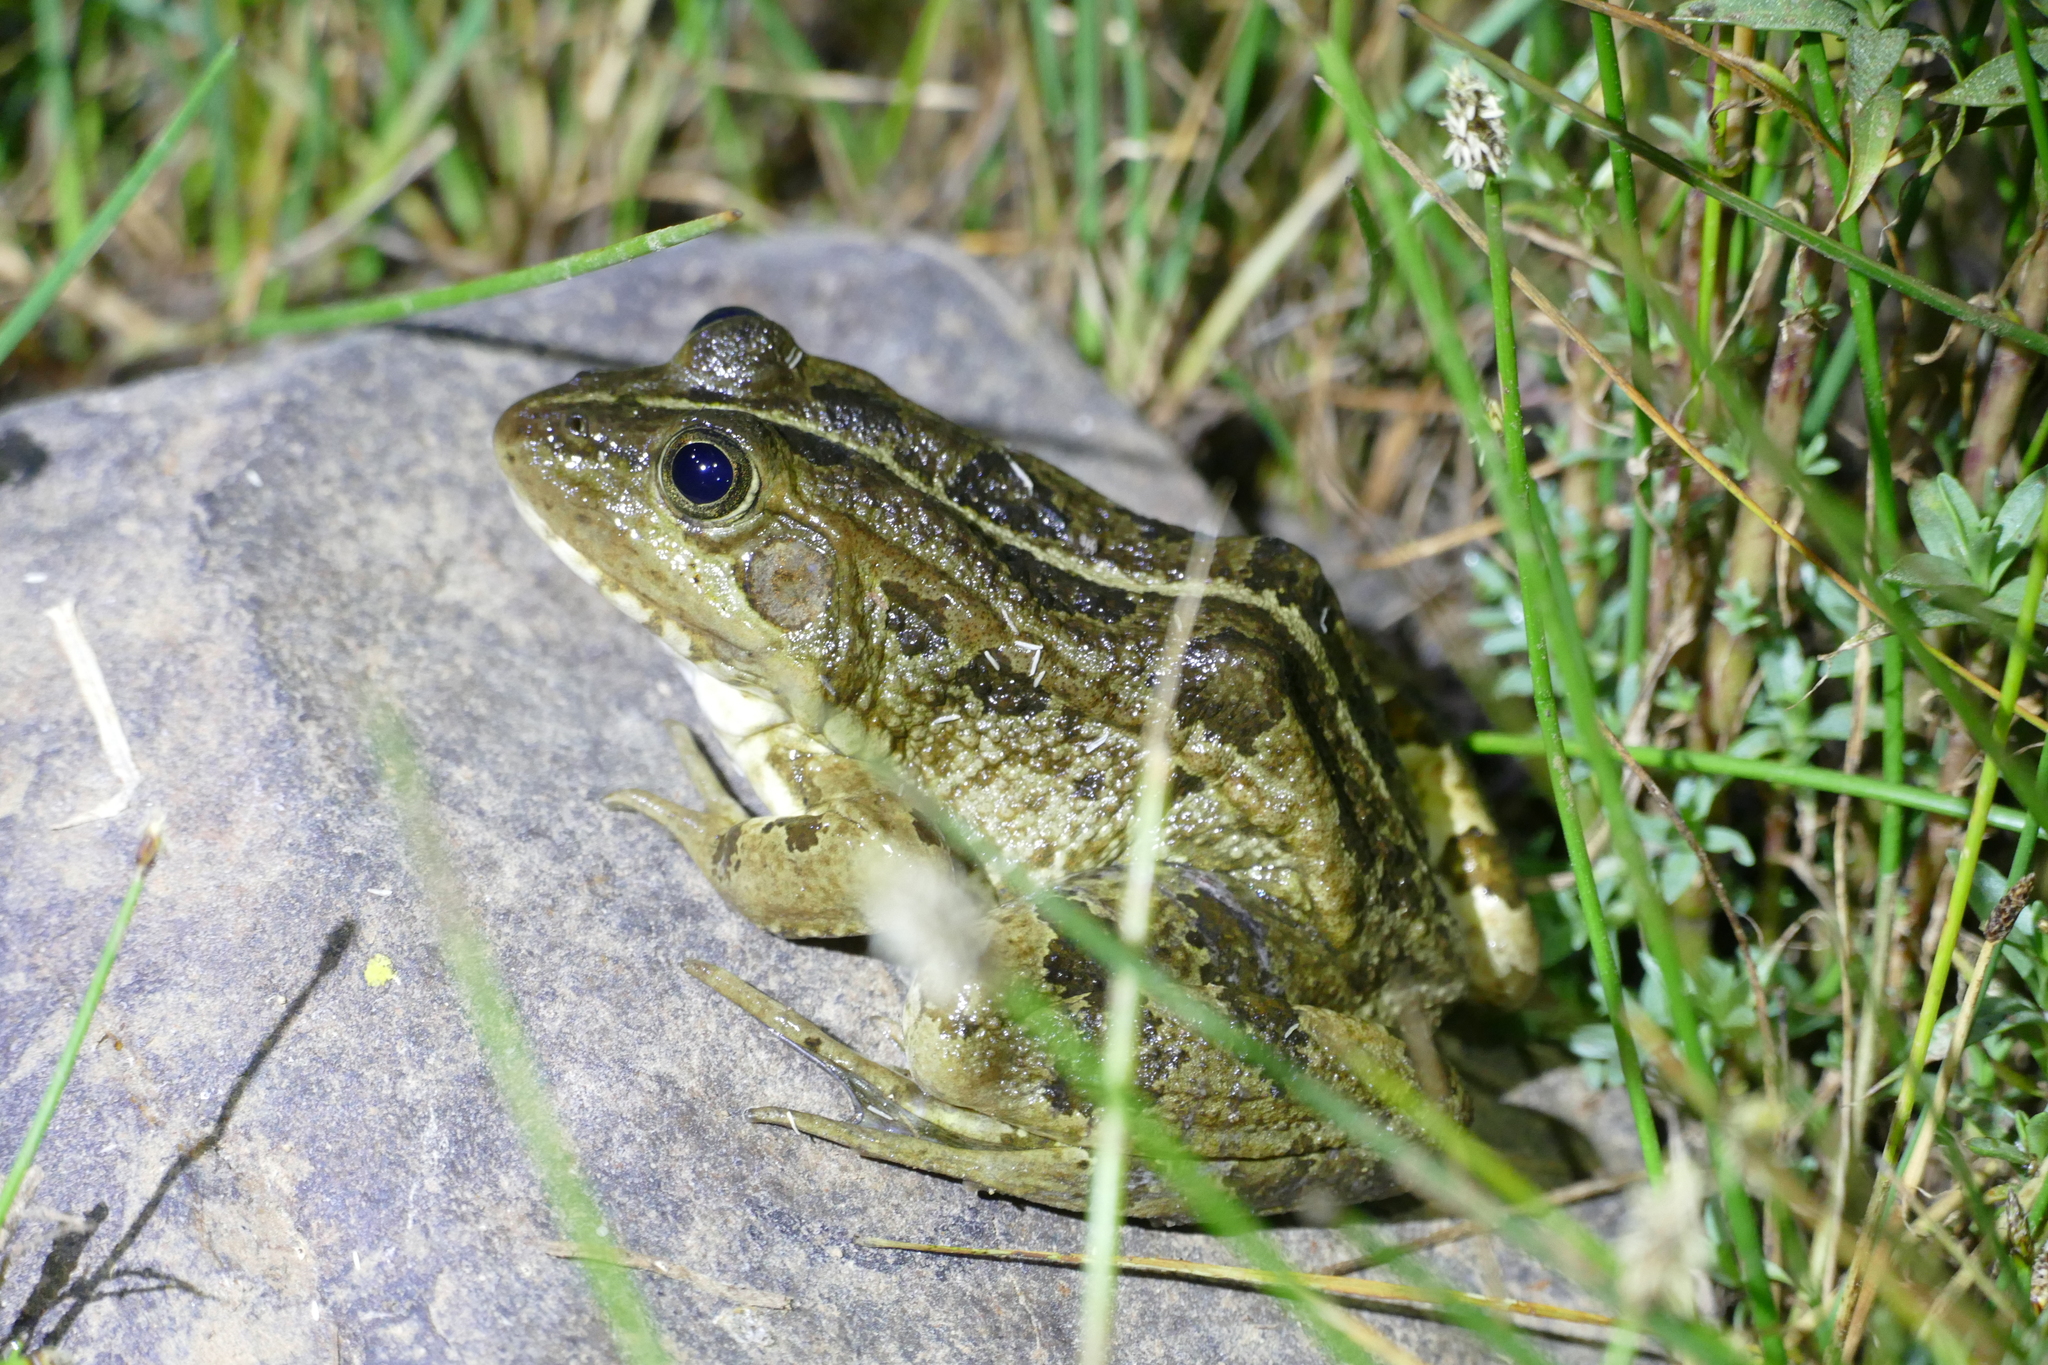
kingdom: Animalia
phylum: Chordata
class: Amphibia
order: Anura
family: Ranidae
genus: Pelophylax
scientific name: Pelophylax perezi
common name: Perez's frog
